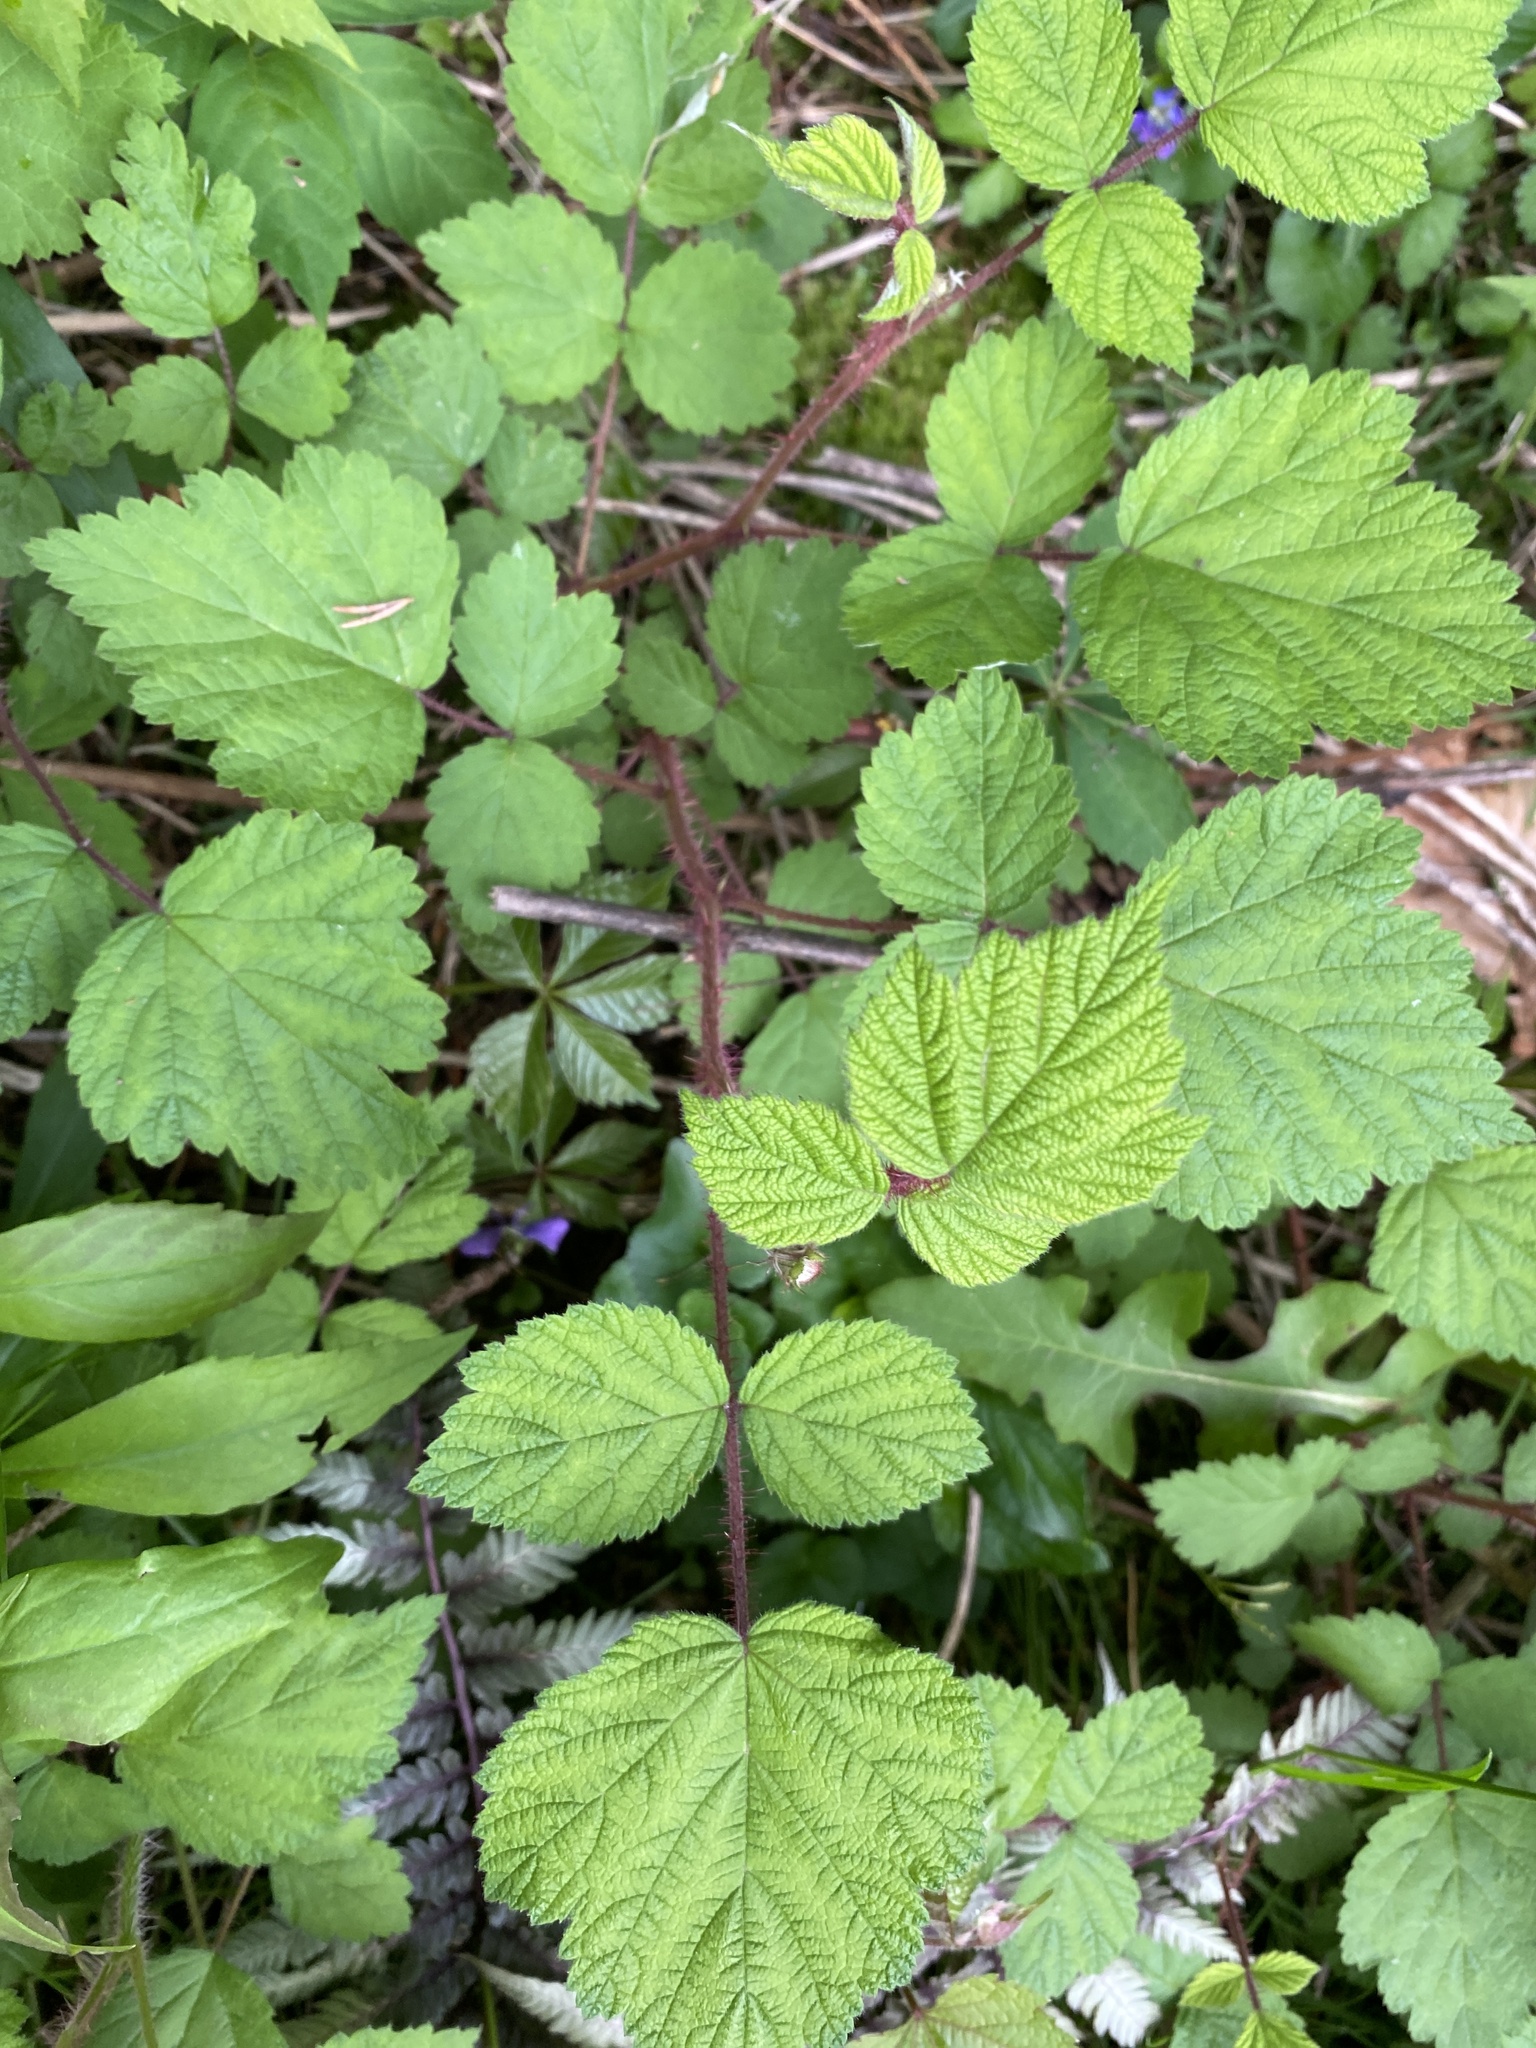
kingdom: Plantae
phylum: Tracheophyta
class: Magnoliopsida
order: Rosales
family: Rosaceae
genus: Rubus
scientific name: Rubus phoenicolasius
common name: Japanese wineberry
